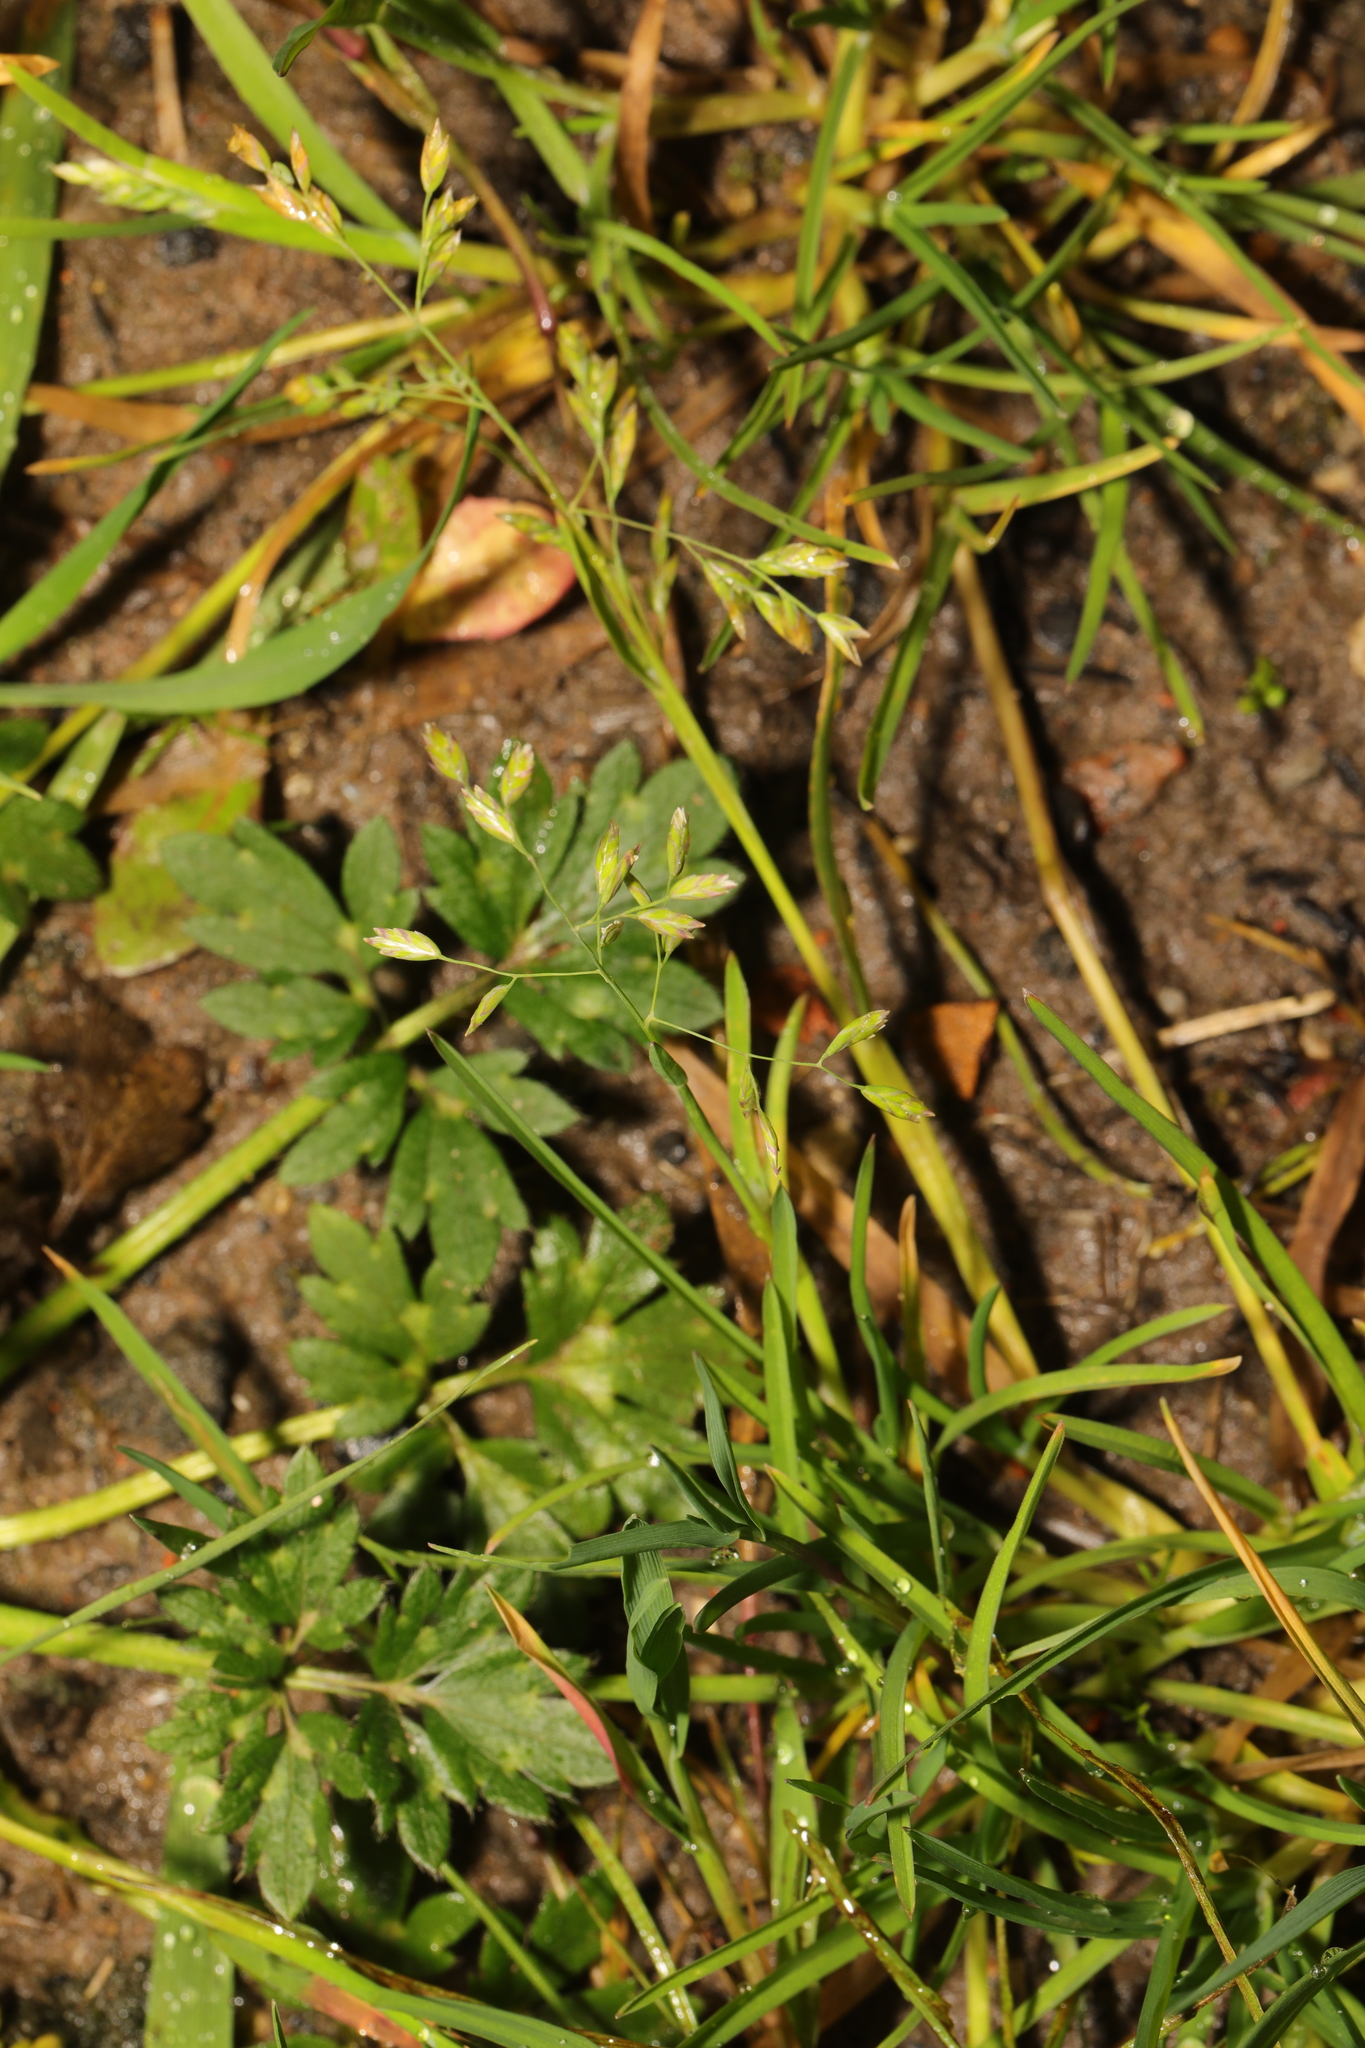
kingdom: Plantae
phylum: Tracheophyta
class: Liliopsida
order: Poales
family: Poaceae
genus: Poa
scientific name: Poa annua
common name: Annual bluegrass
